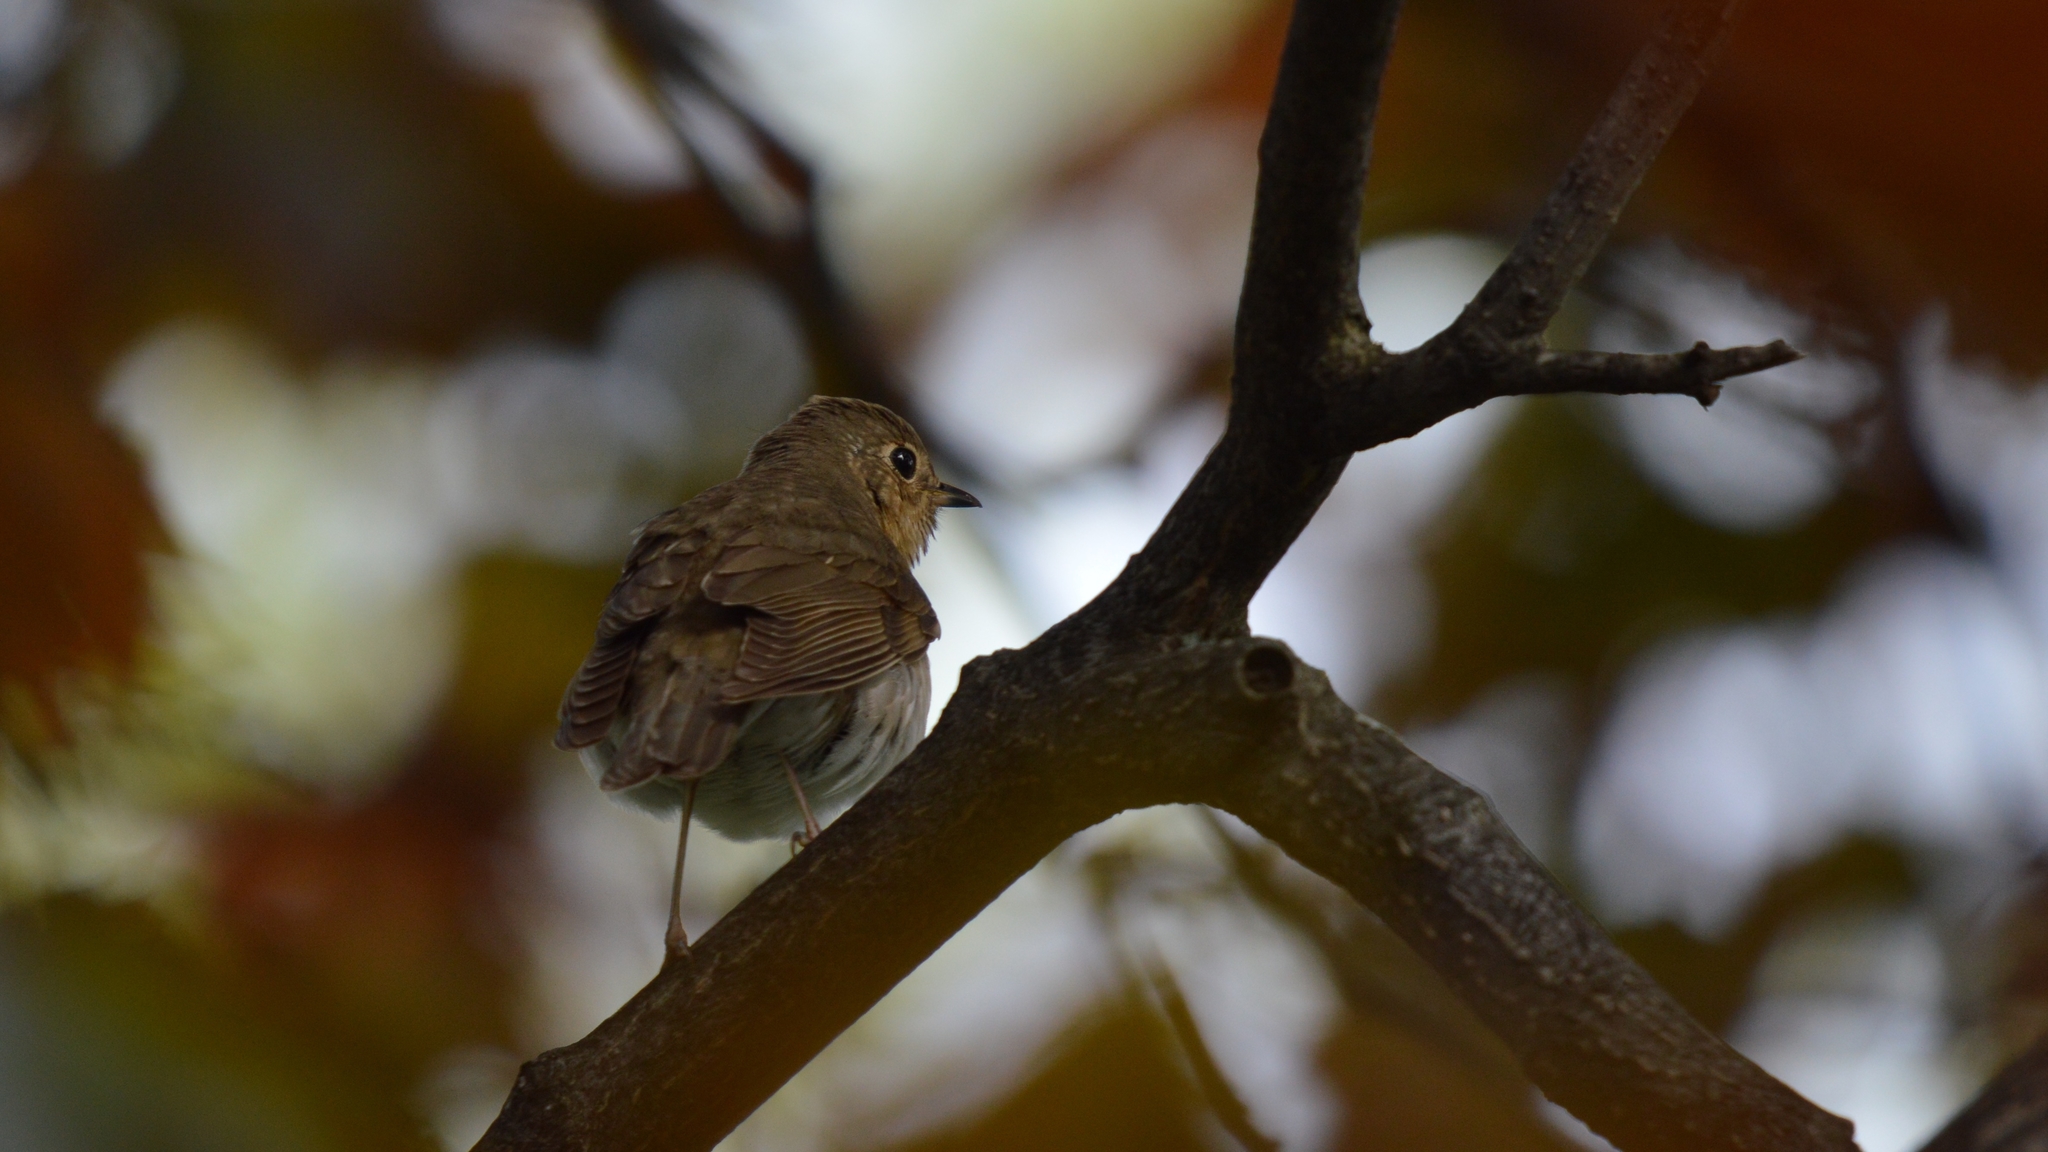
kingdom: Animalia
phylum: Chordata
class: Aves
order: Passeriformes
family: Turdidae
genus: Catharus
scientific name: Catharus ustulatus
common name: Swainson's thrush
